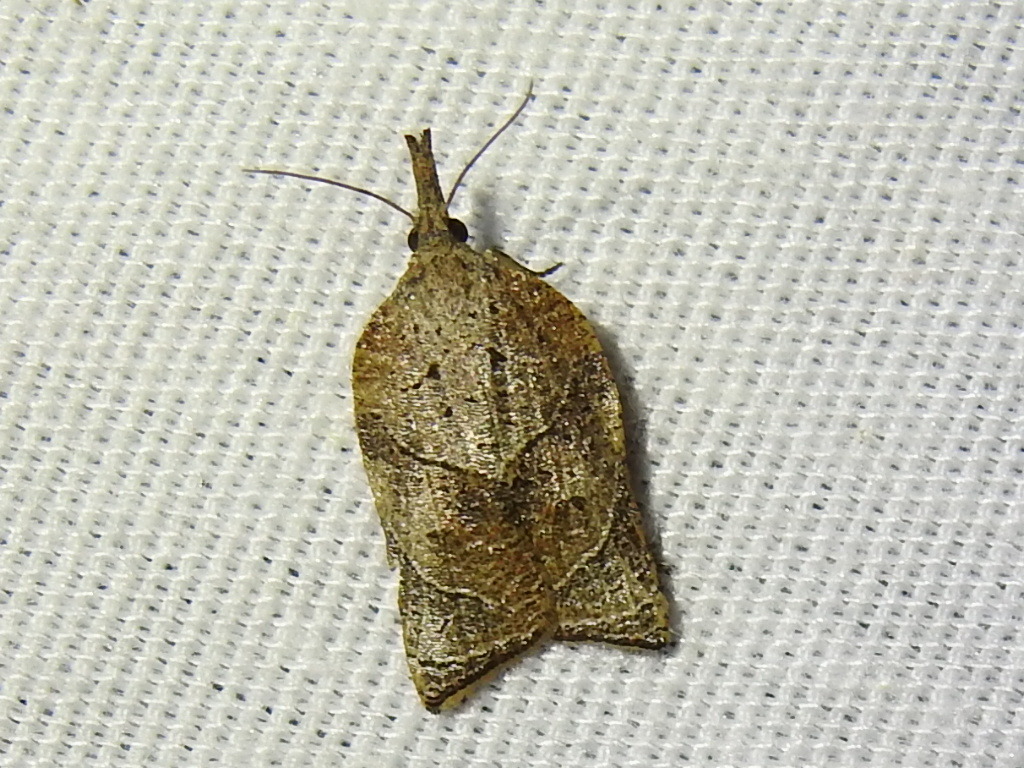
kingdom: Animalia
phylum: Arthropoda
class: Insecta
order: Lepidoptera
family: Tortricidae
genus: Platynota
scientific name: Platynota rostrana
